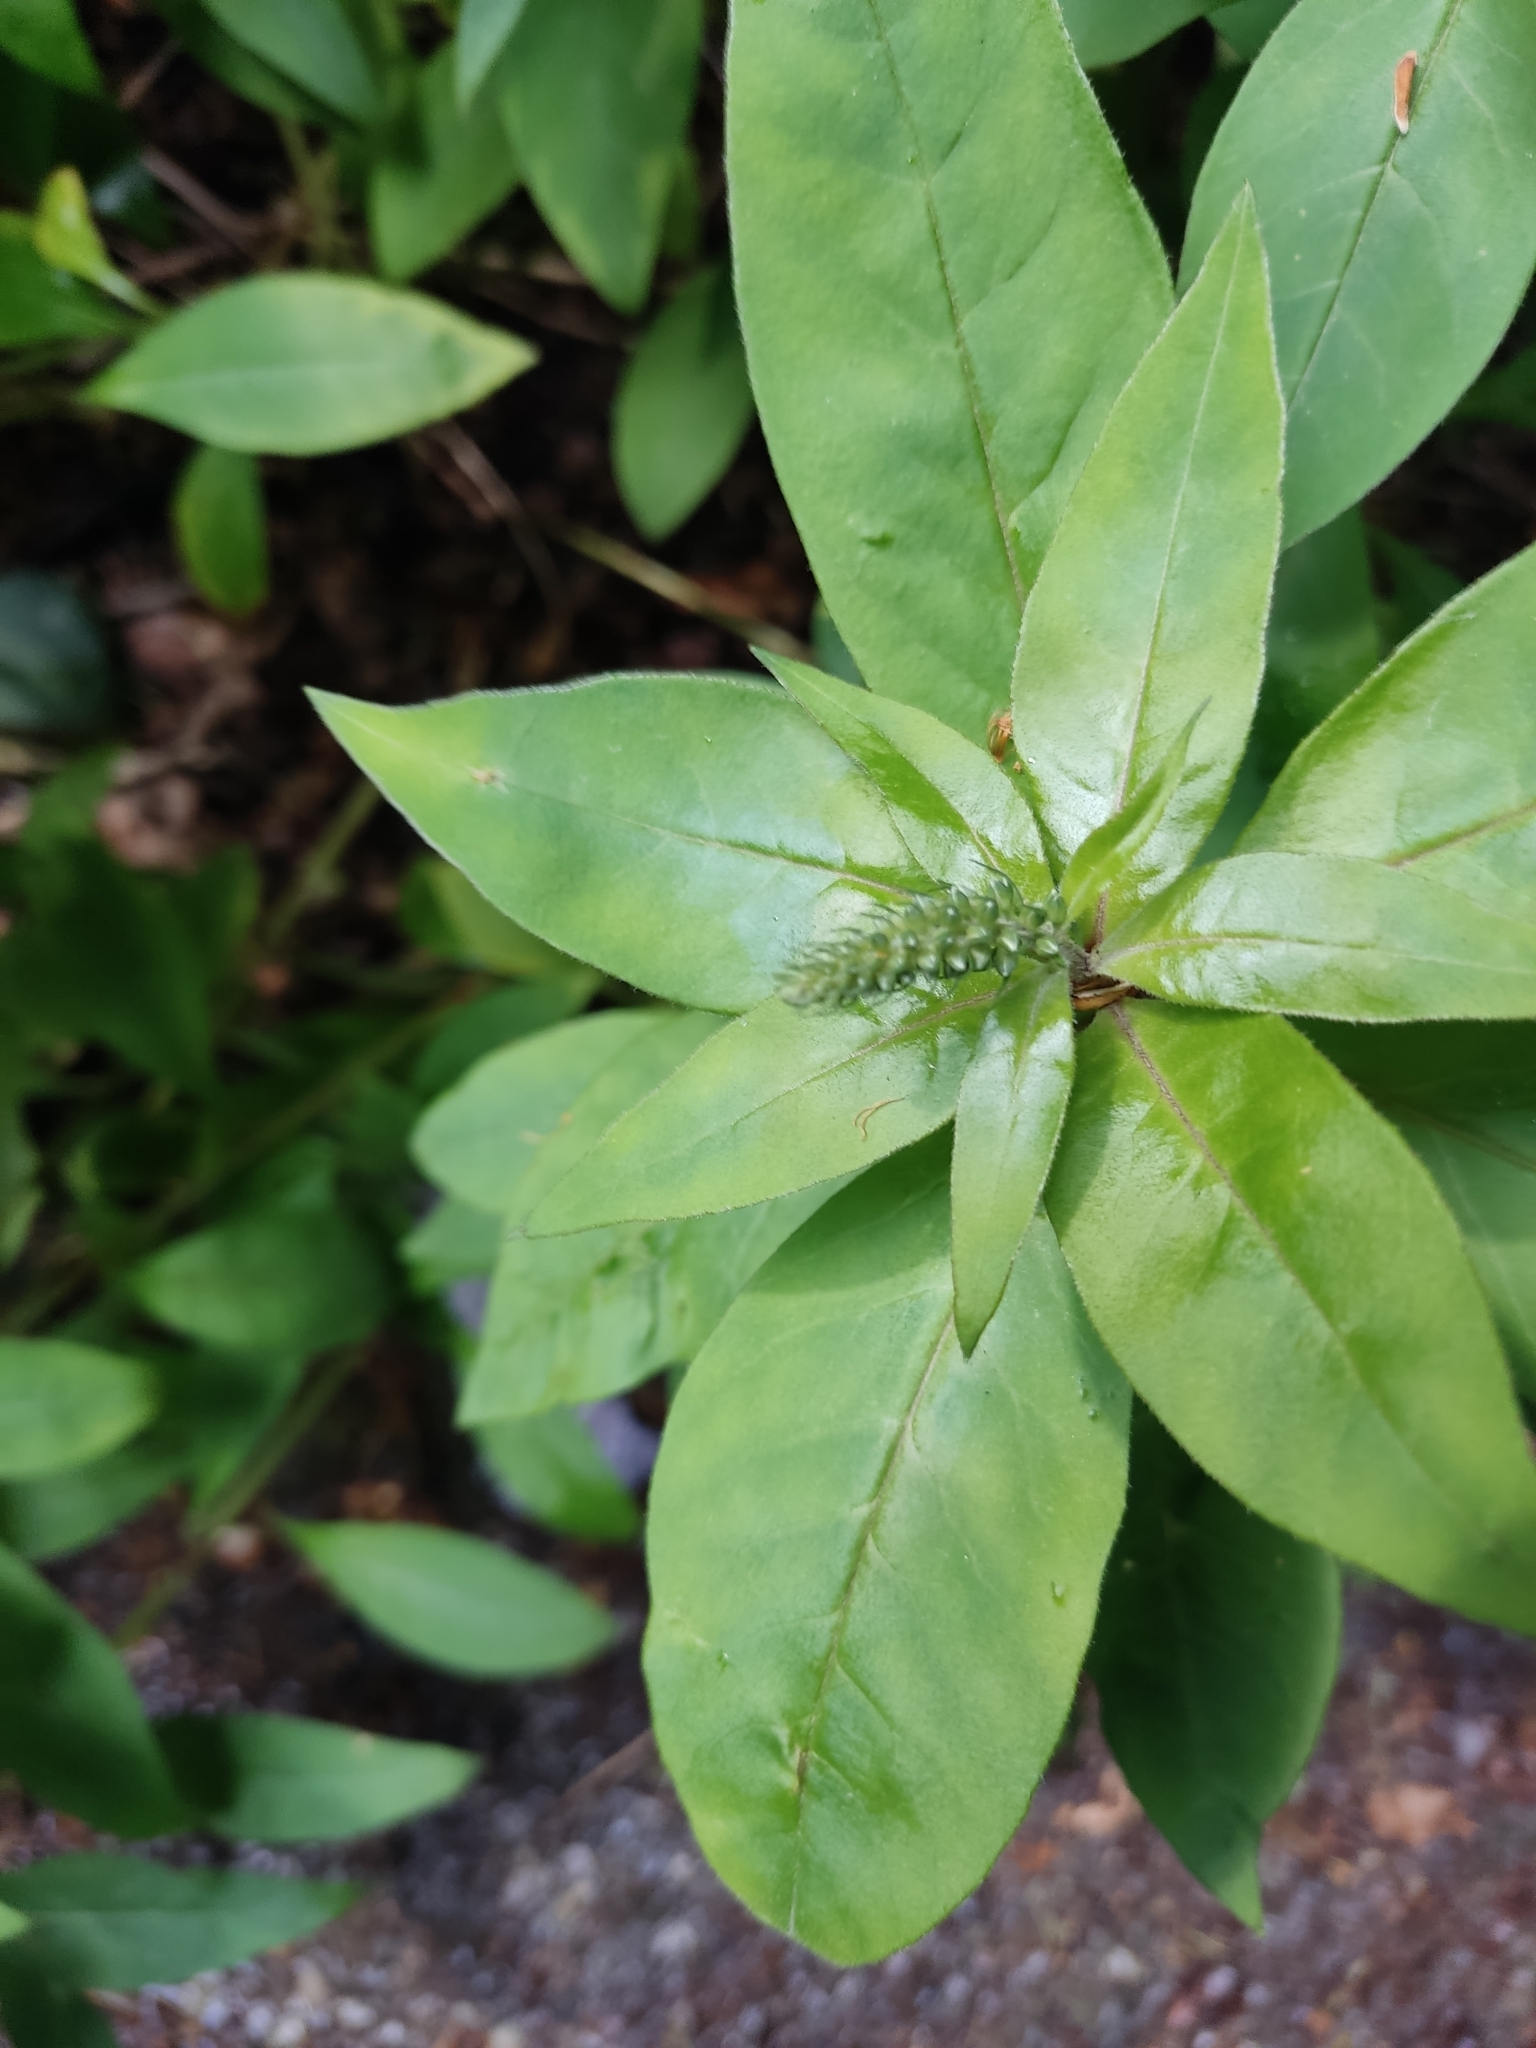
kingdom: Plantae
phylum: Tracheophyta
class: Magnoliopsida
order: Ericales
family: Primulaceae
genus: Lysimachia
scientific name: Lysimachia clethroides
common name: Gooseneck loosestrife
